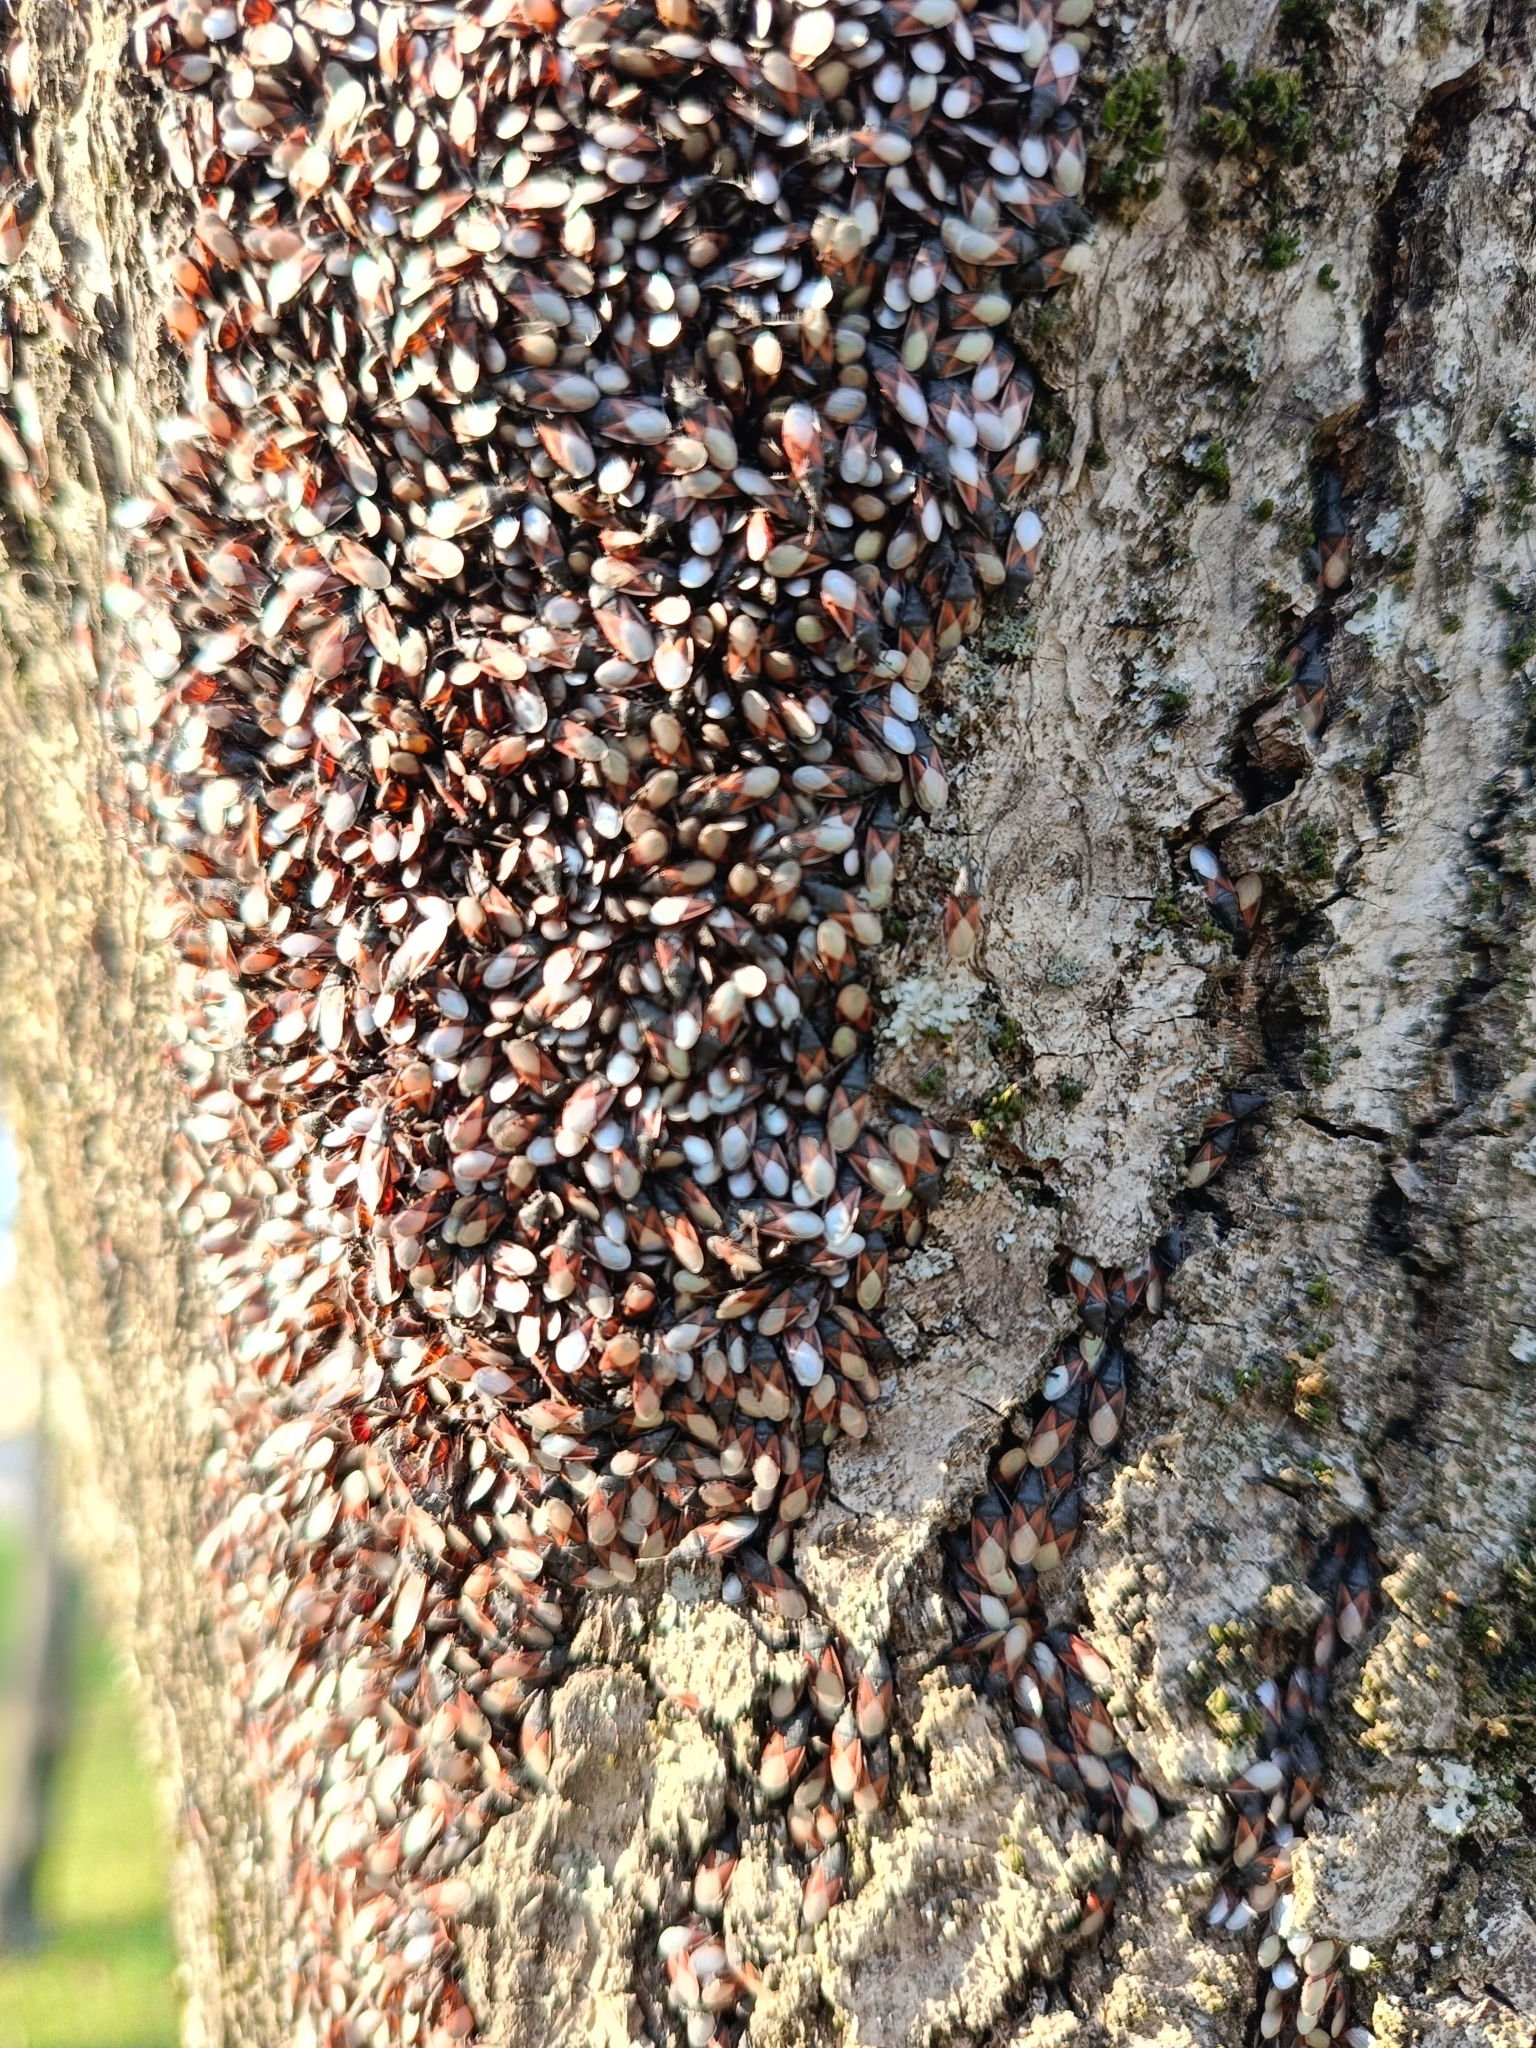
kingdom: Animalia
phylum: Arthropoda
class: Insecta
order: Hemiptera
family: Oxycarenidae
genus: Oxycarenus
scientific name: Oxycarenus lavaterae
